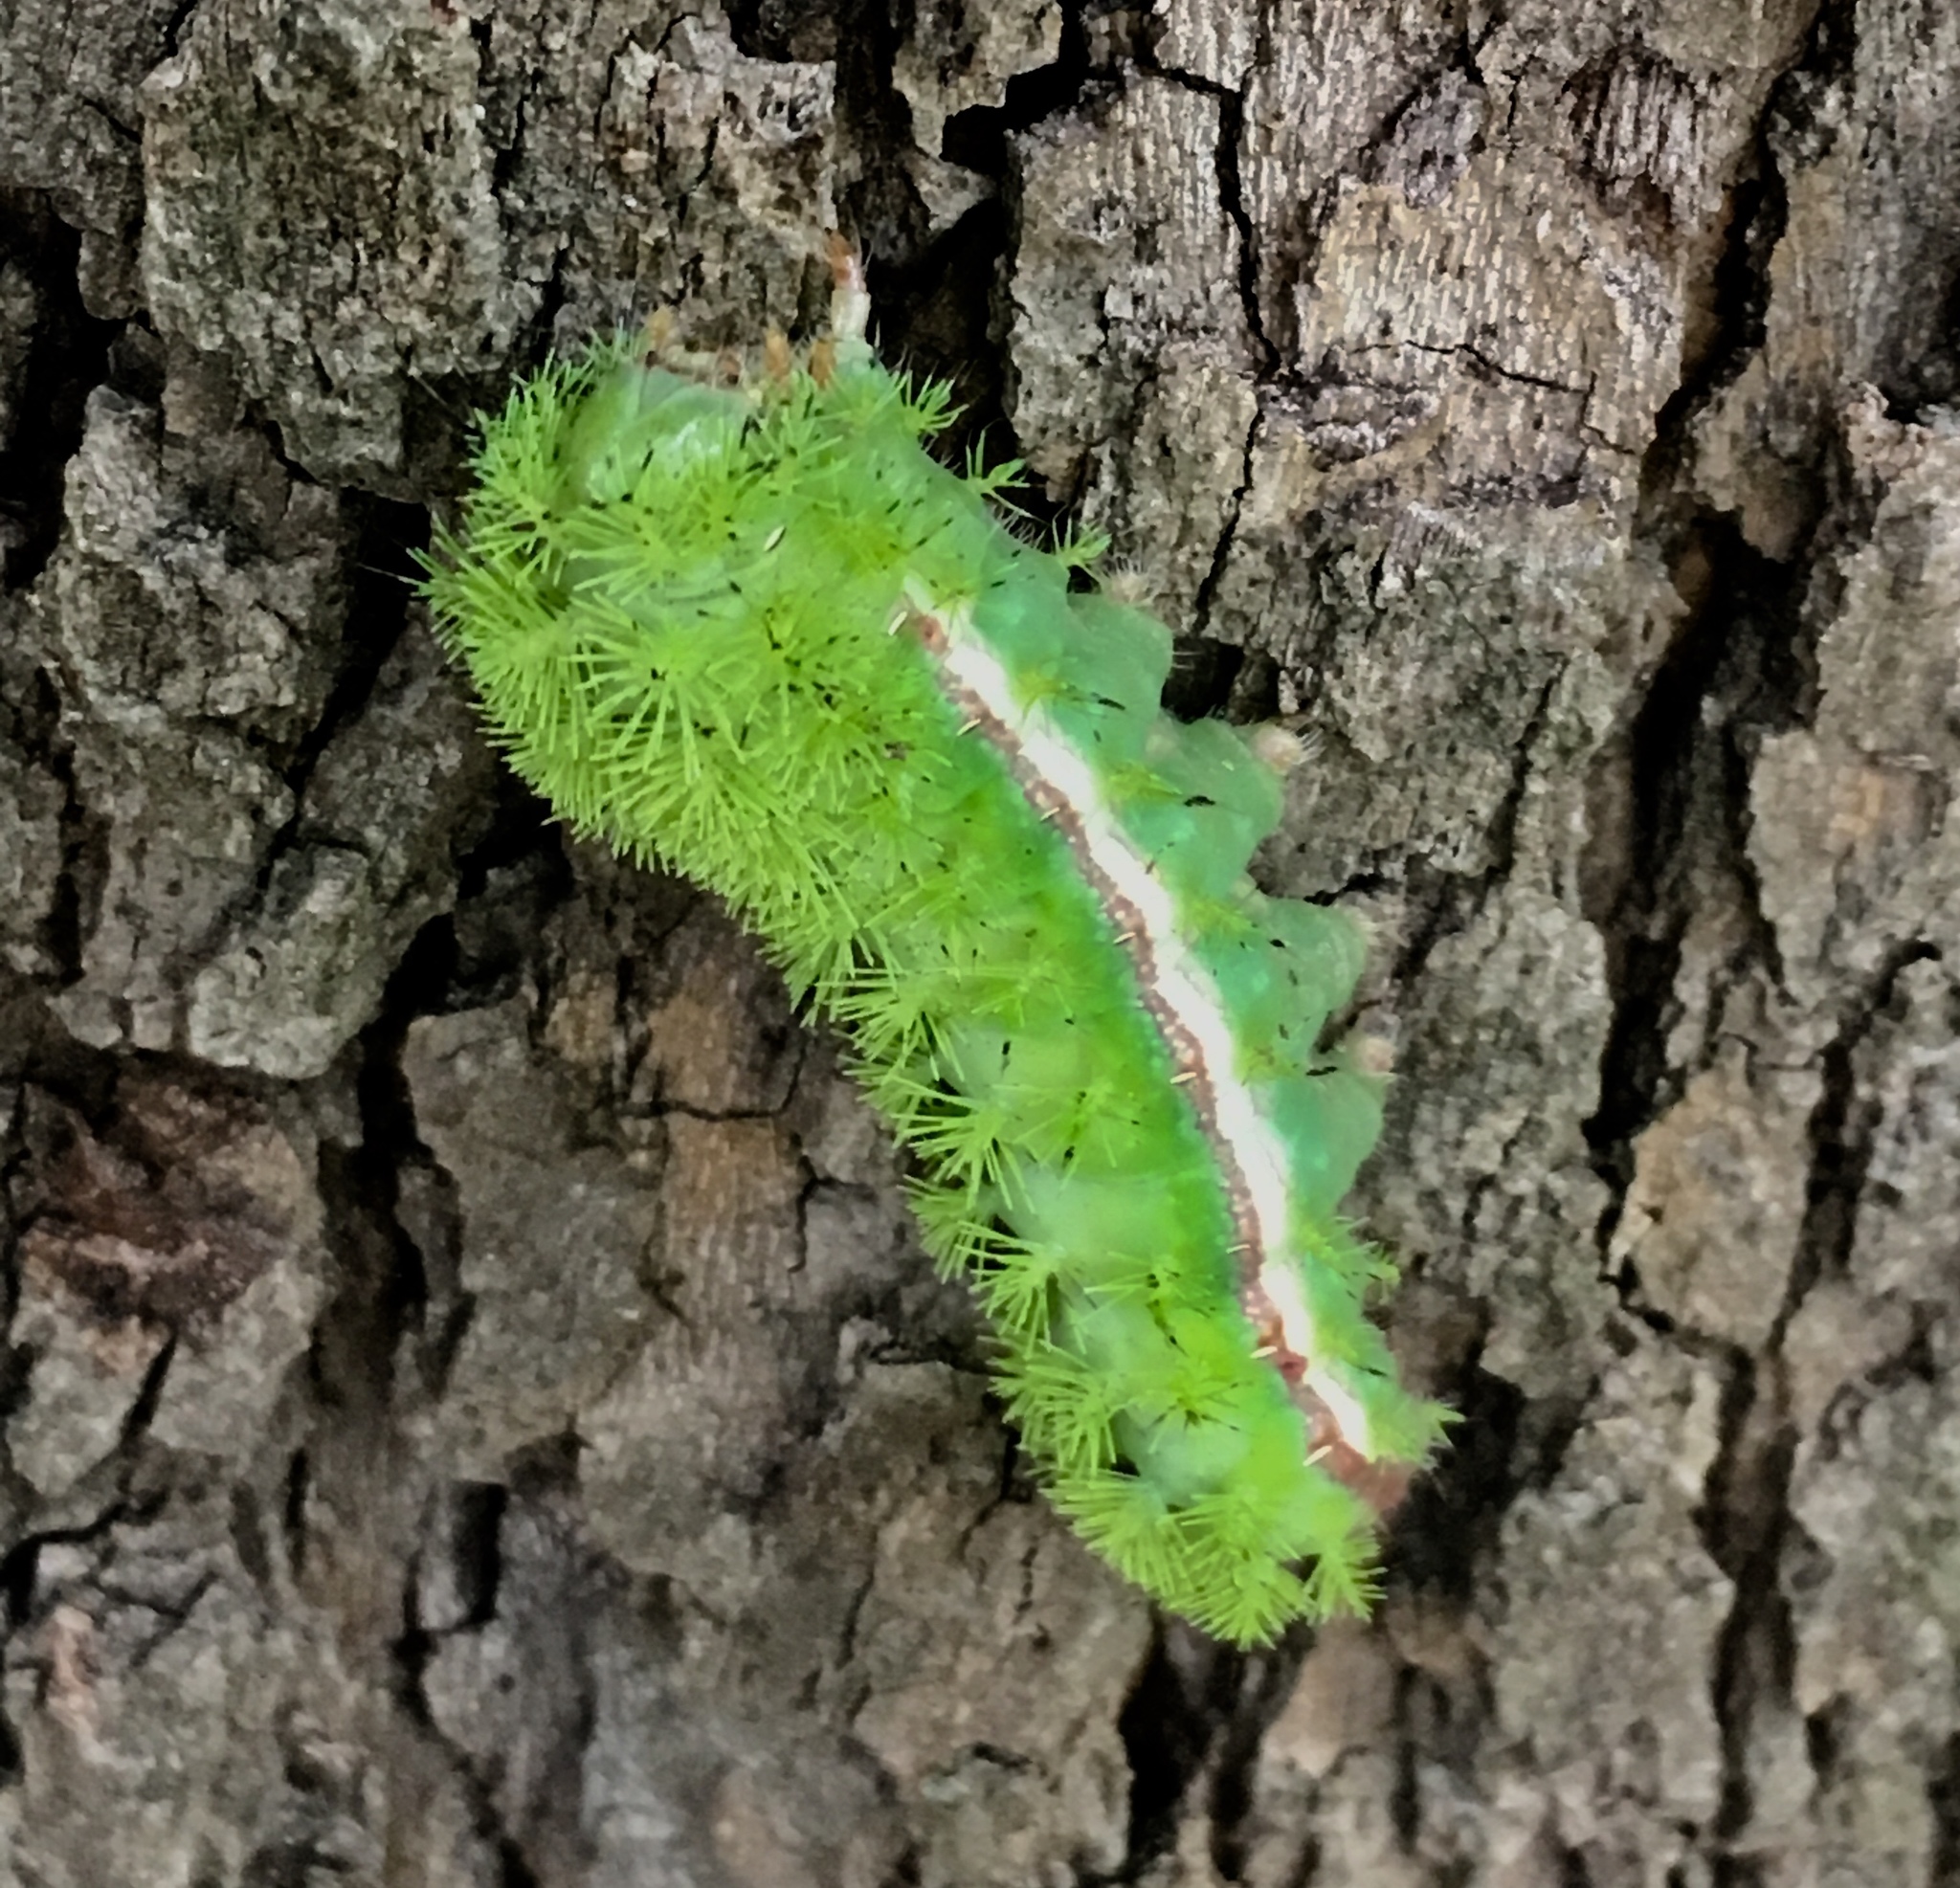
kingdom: Animalia
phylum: Arthropoda
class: Insecta
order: Lepidoptera
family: Saturniidae
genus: Automeris
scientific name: Automeris io
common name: Io moth
